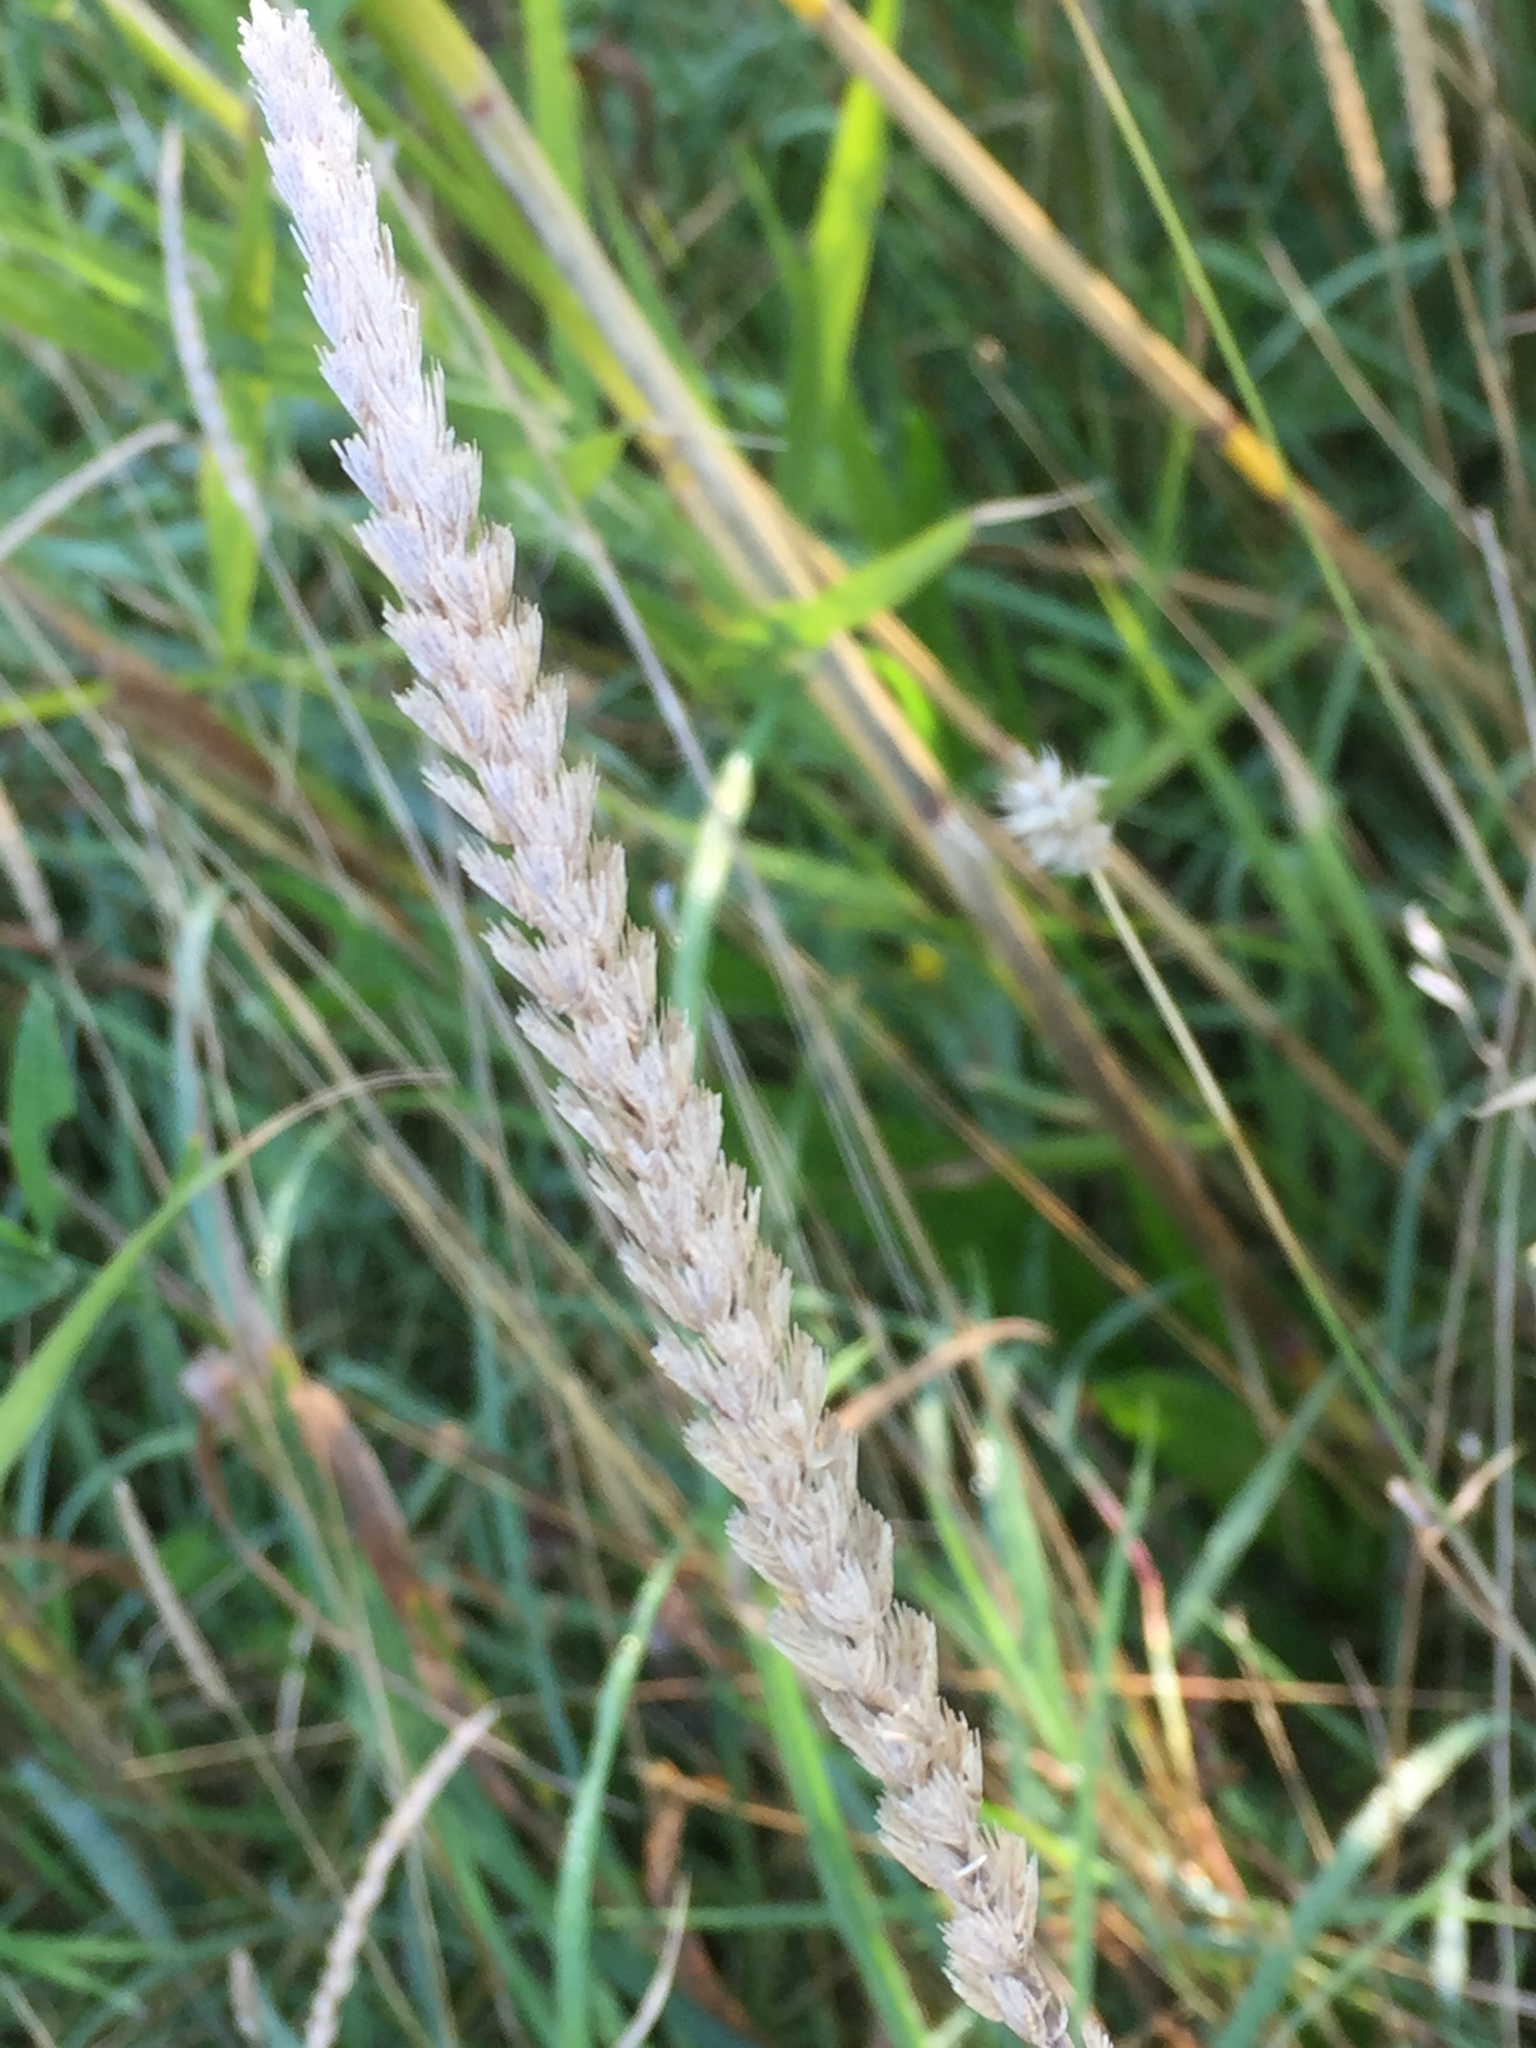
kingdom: Plantae
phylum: Tracheophyta
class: Liliopsida
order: Poales
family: Poaceae
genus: Cynosurus
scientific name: Cynosurus cristatus
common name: Crested dog's-tail
